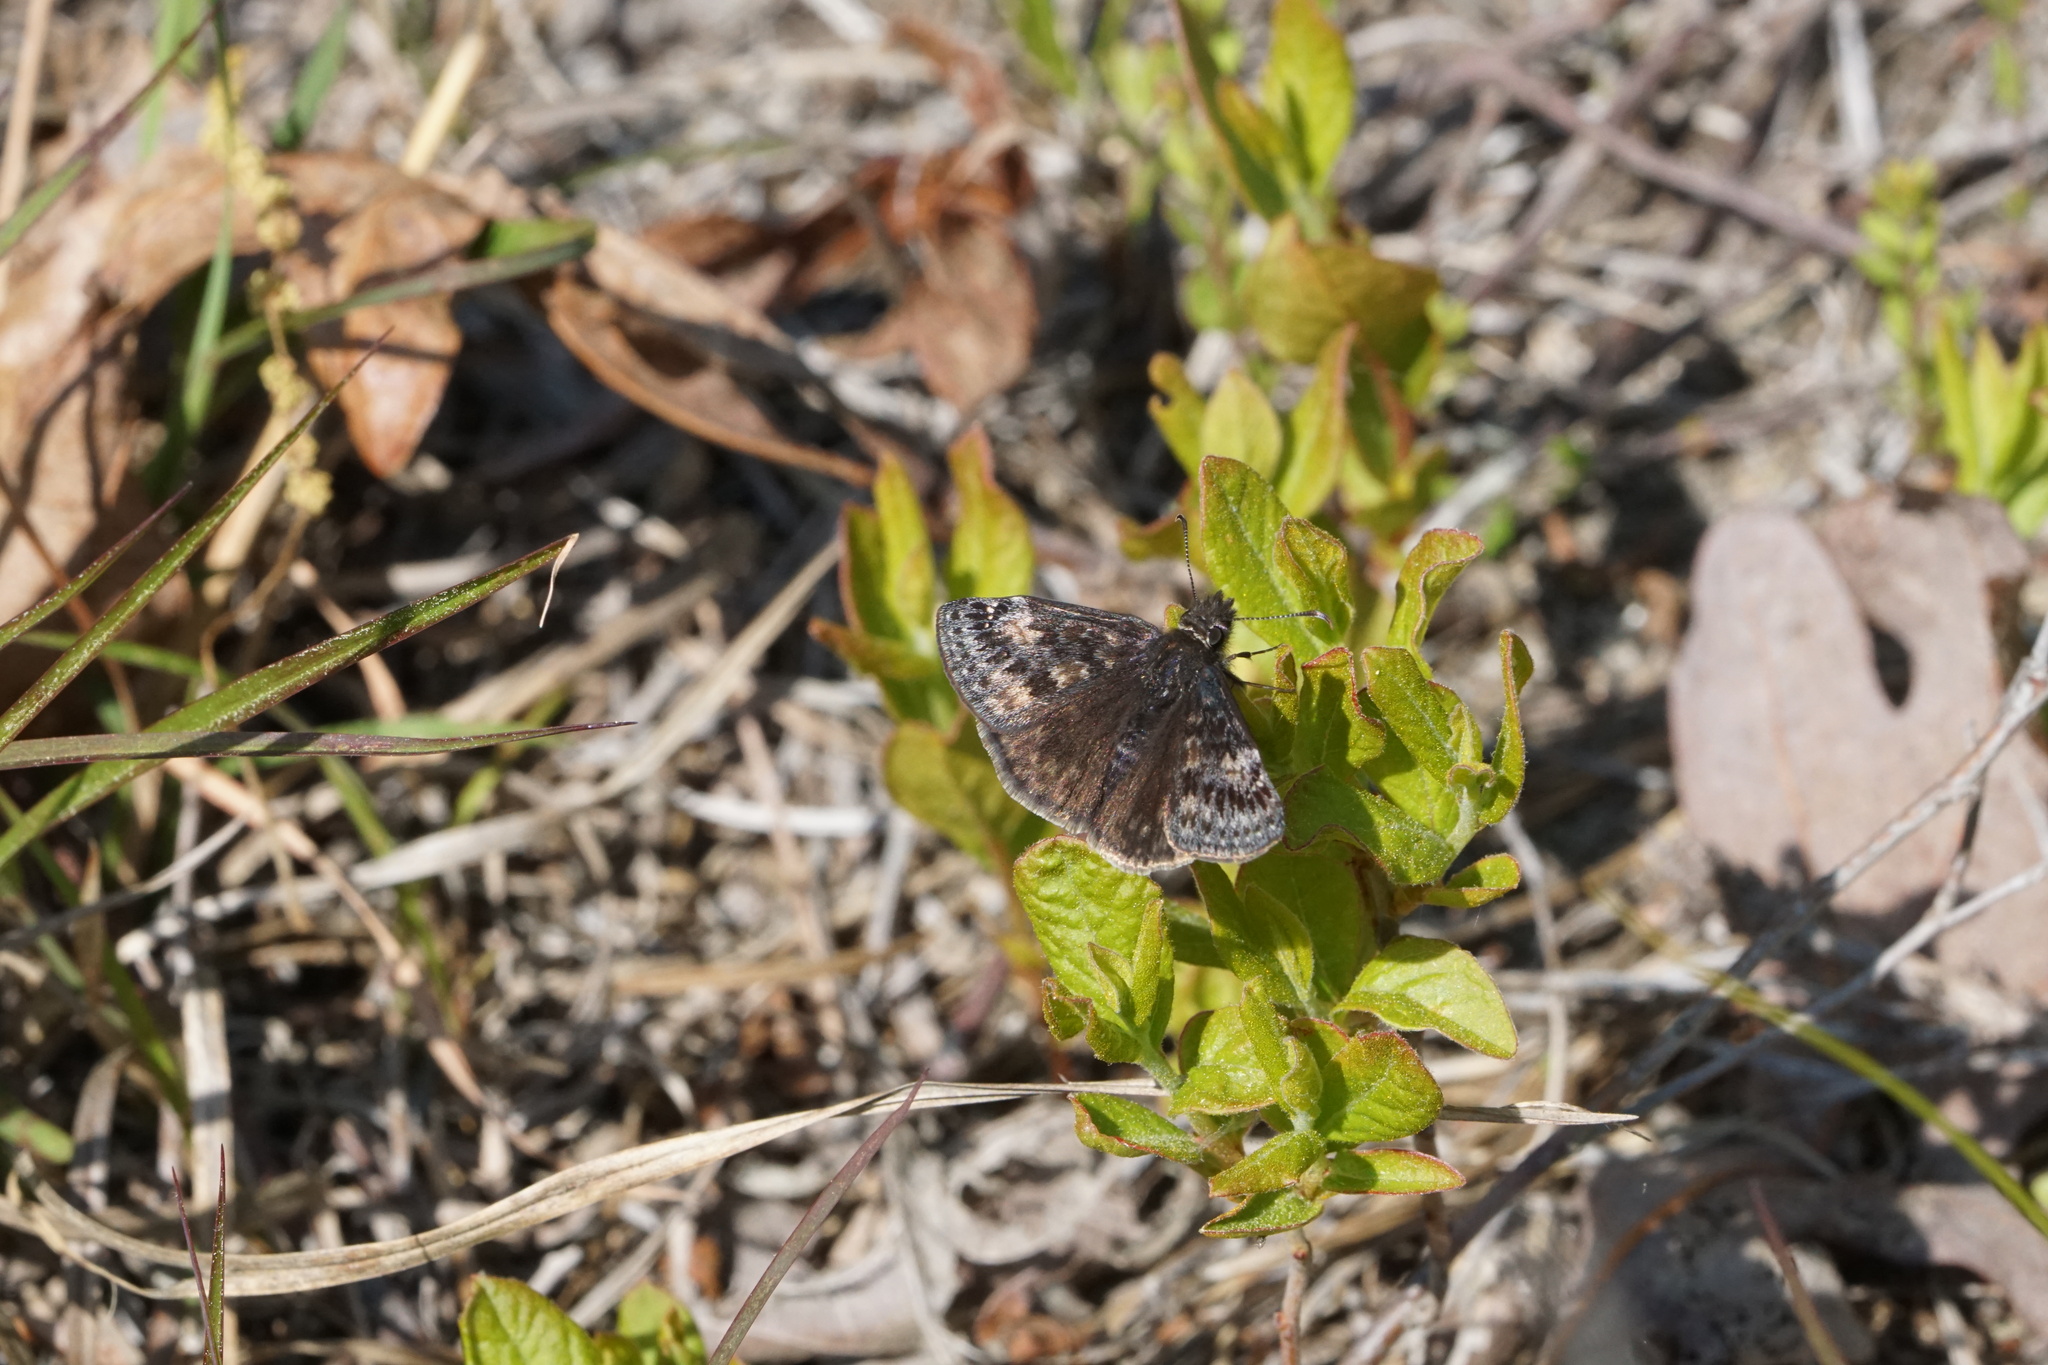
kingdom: Animalia
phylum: Arthropoda
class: Insecta
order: Lepidoptera
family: Hesperiidae
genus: Erynnis
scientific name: Erynnis baptisiae
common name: Wild indigo duskywing
